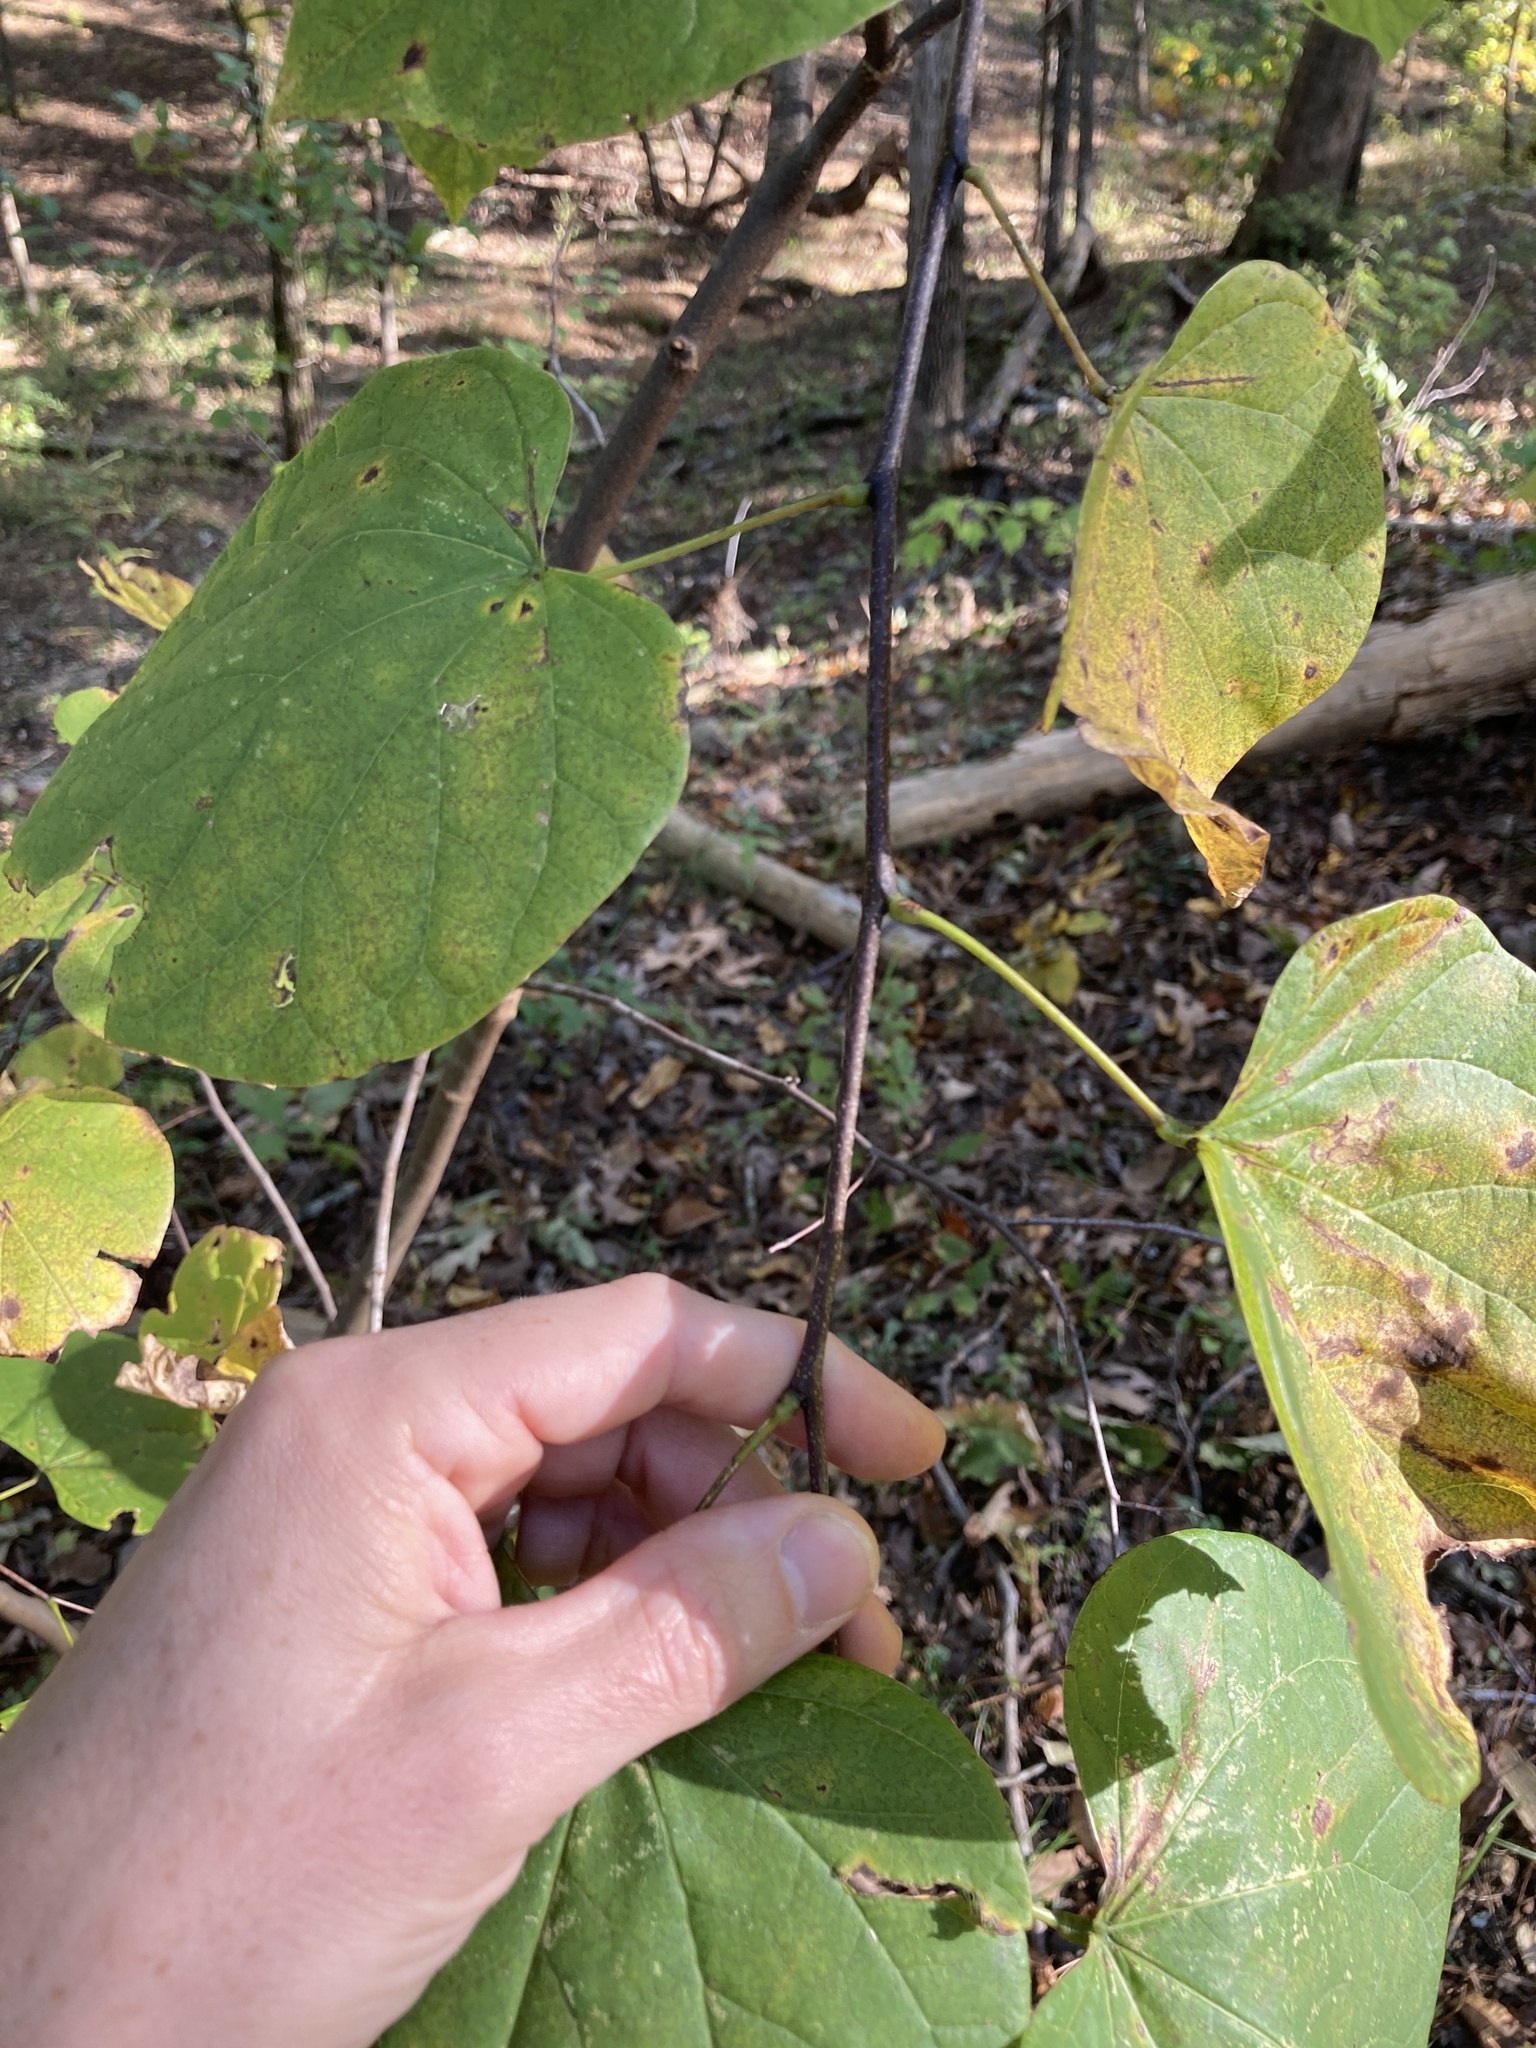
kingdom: Plantae
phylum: Tracheophyta
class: Magnoliopsida
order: Fabales
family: Fabaceae
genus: Cercis
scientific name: Cercis canadensis
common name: Eastern redbud
